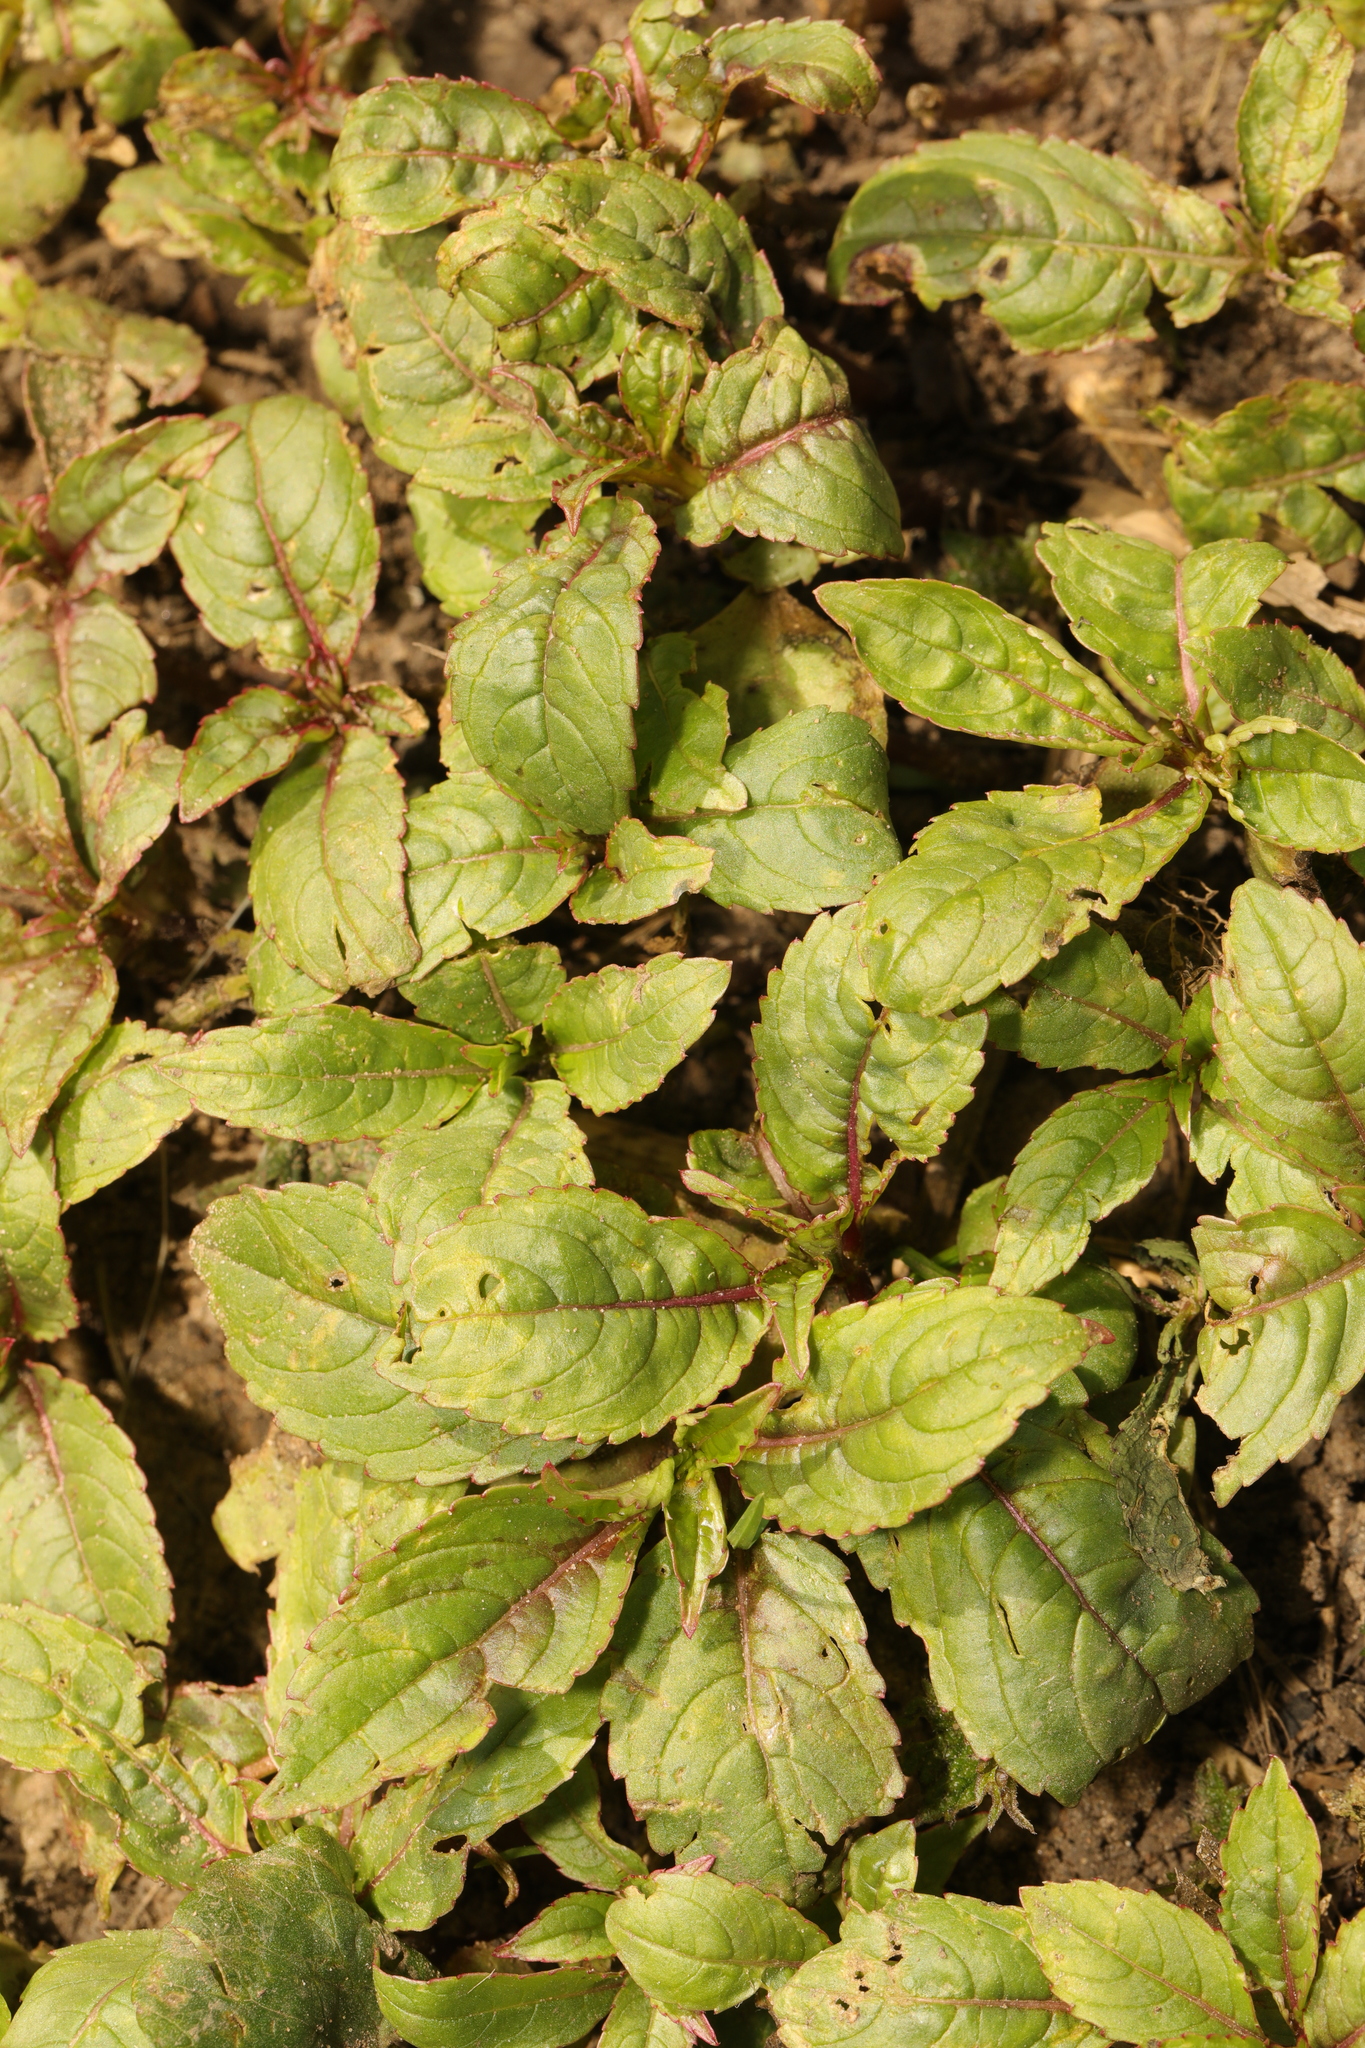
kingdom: Plantae
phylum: Tracheophyta
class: Magnoliopsida
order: Ericales
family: Balsaminaceae
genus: Impatiens
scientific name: Impatiens glandulifera
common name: Himalayan balsam
